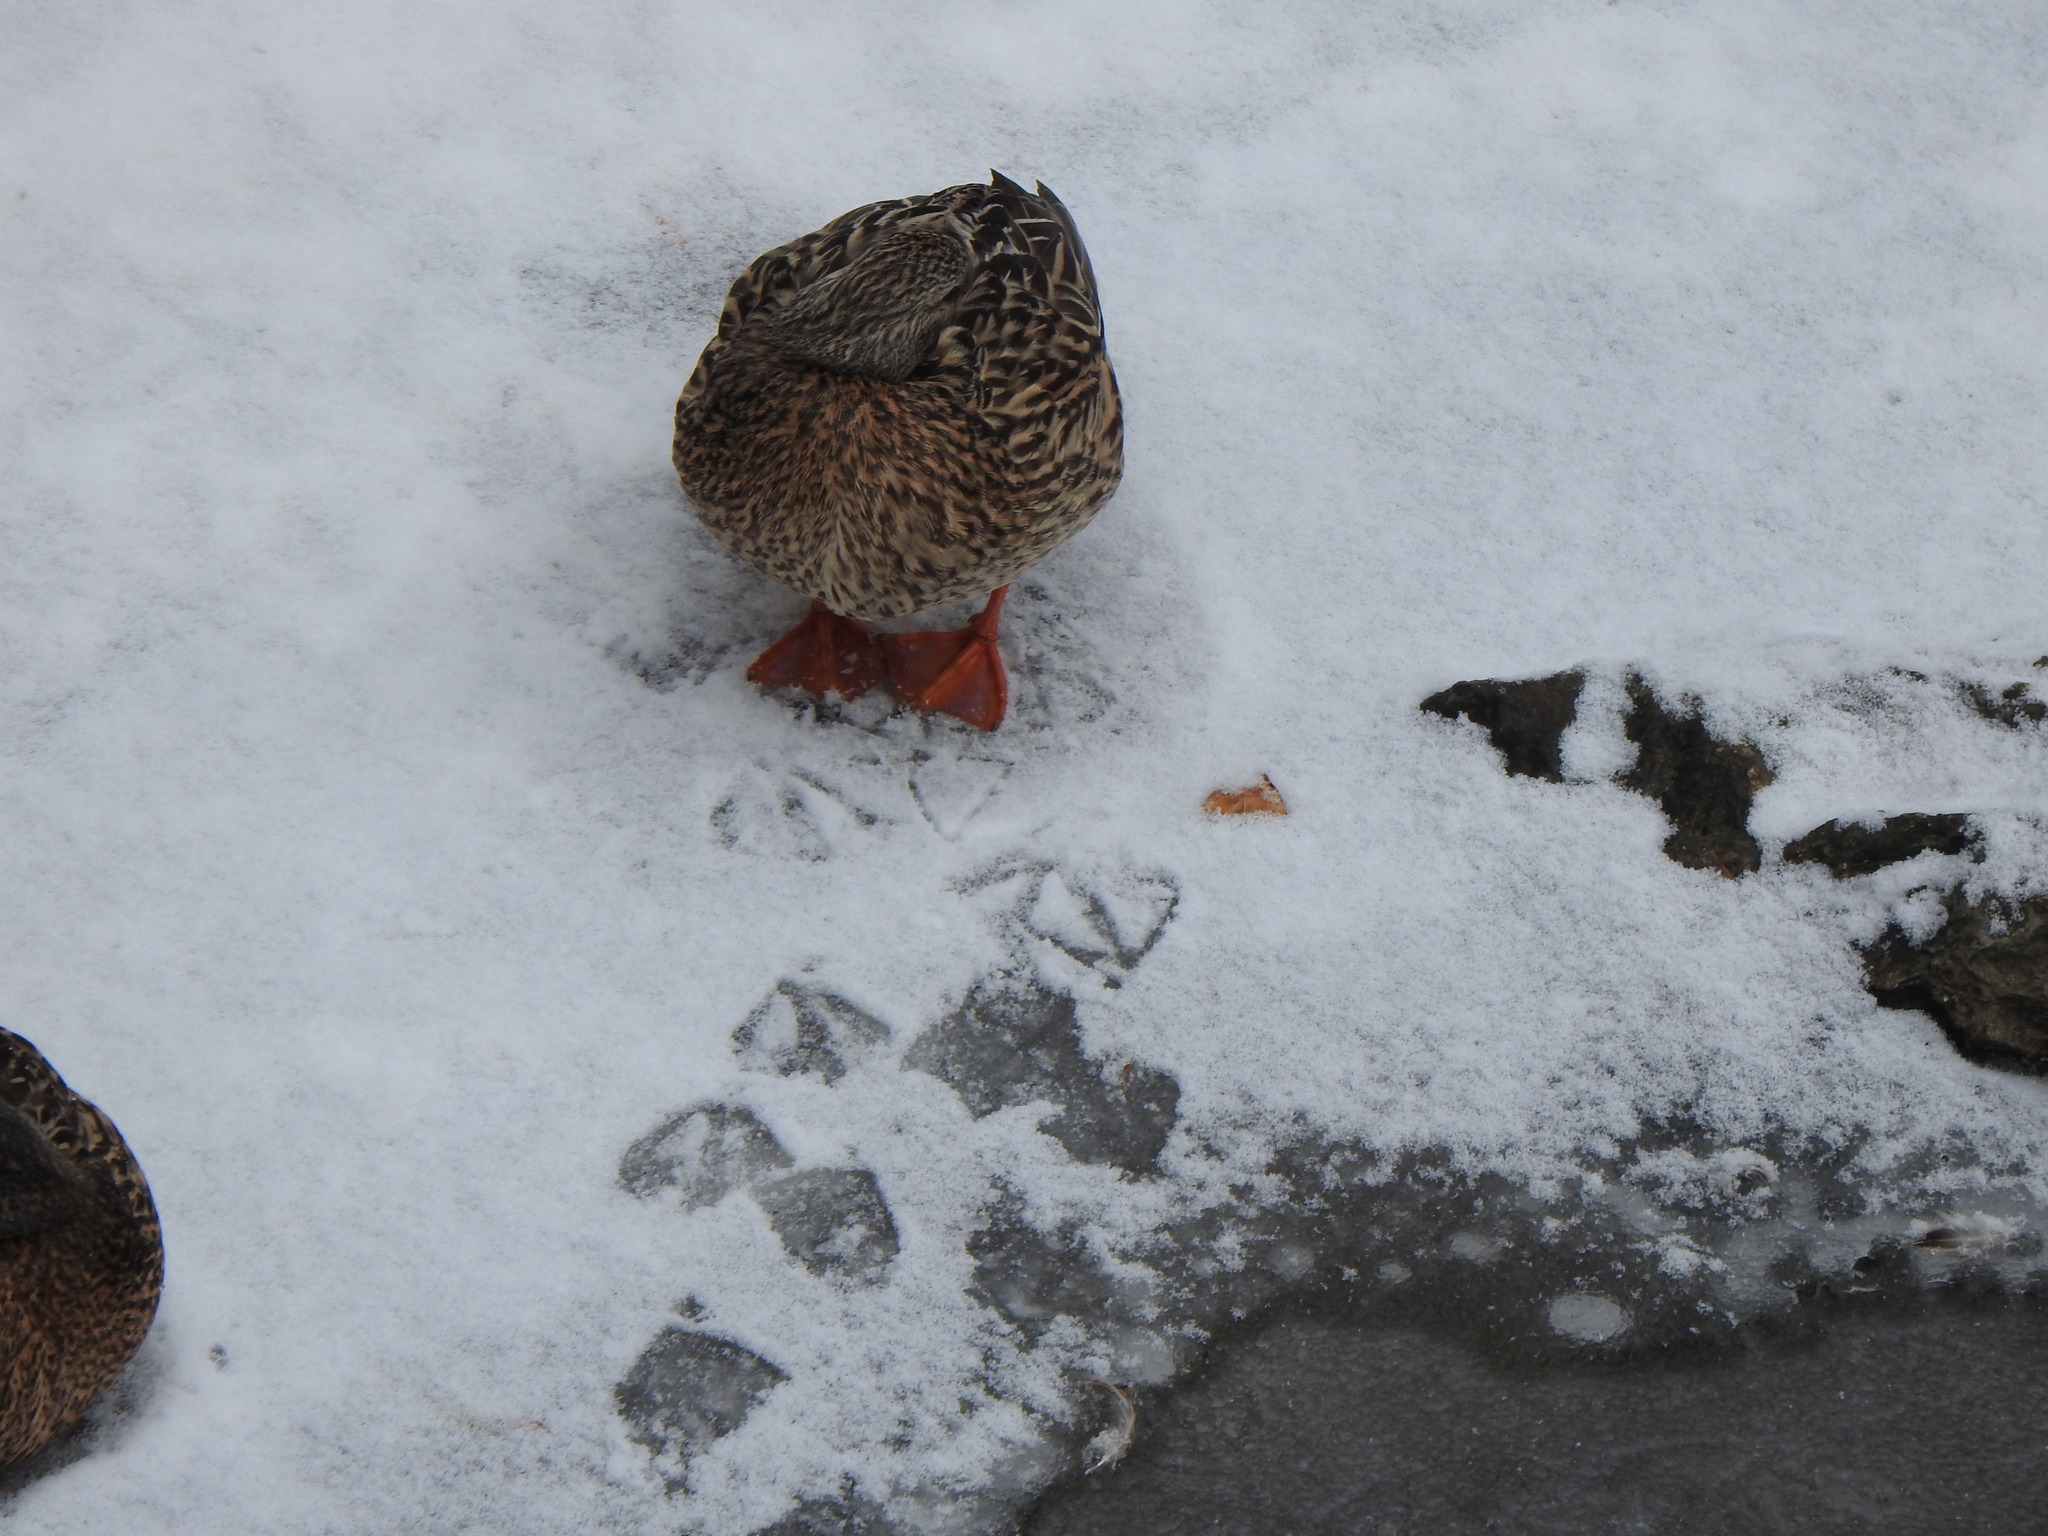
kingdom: Animalia
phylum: Chordata
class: Aves
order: Anseriformes
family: Anatidae
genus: Anas
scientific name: Anas platyrhynchos
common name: Mallard
